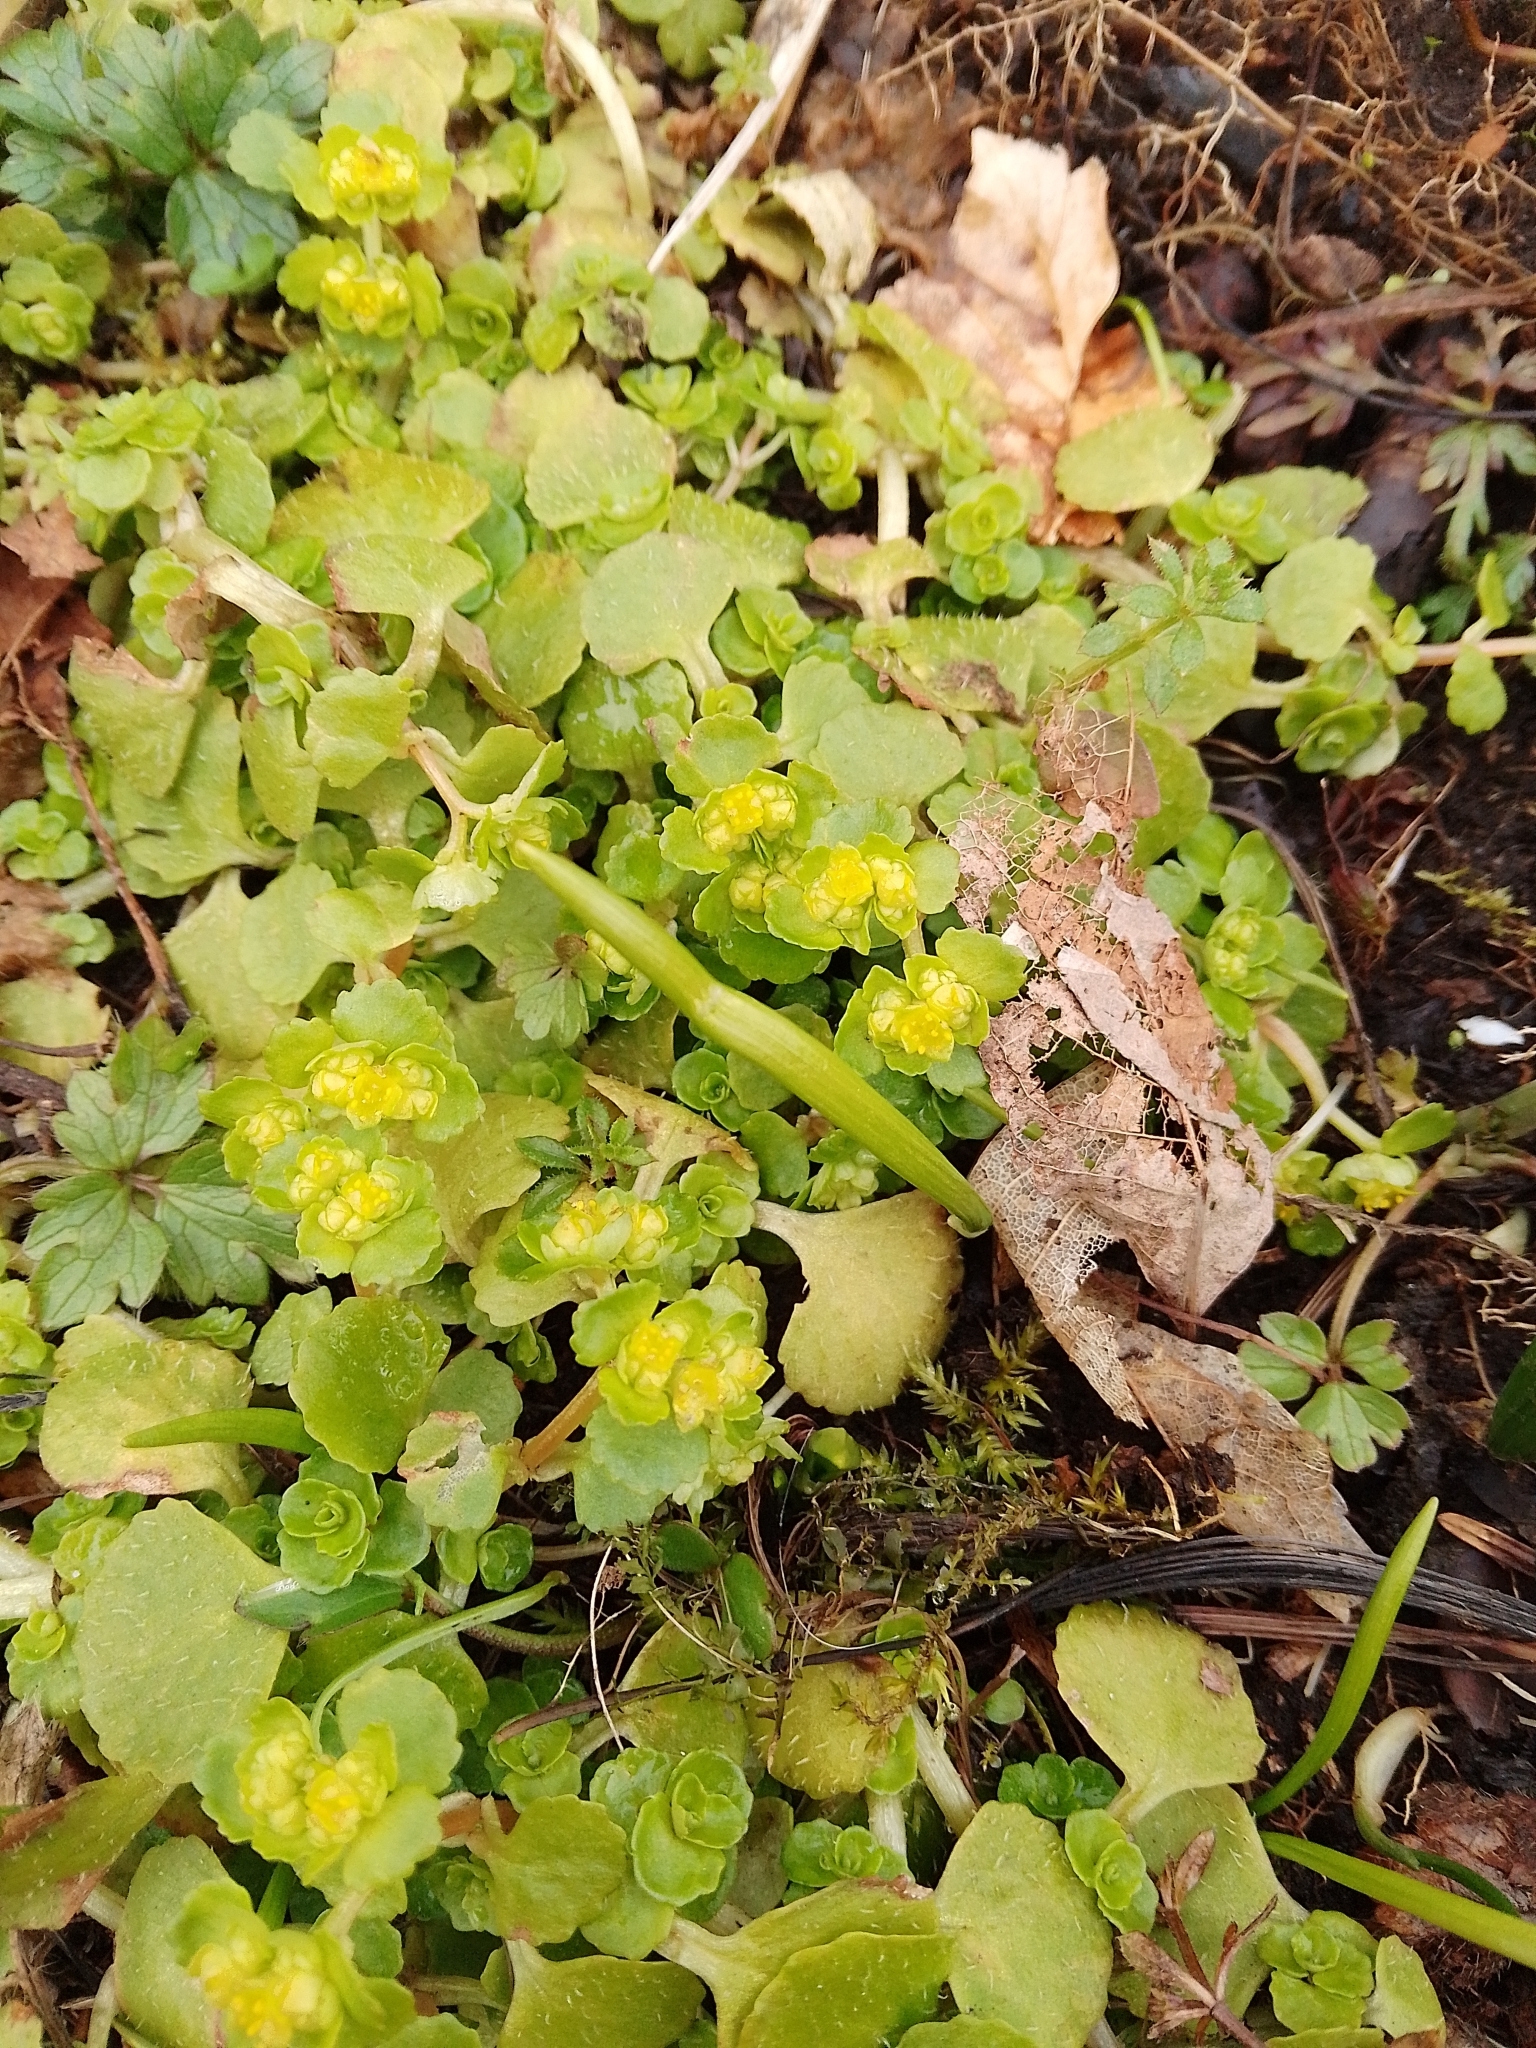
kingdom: Plantae
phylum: Tracheophyta
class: Magnoliopsida
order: Saxifragales
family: Saxifragaceae
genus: Chrysosplenium
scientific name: Chrysosplenium oppositifolium
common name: Opposite-leaved golden-saxifrage
